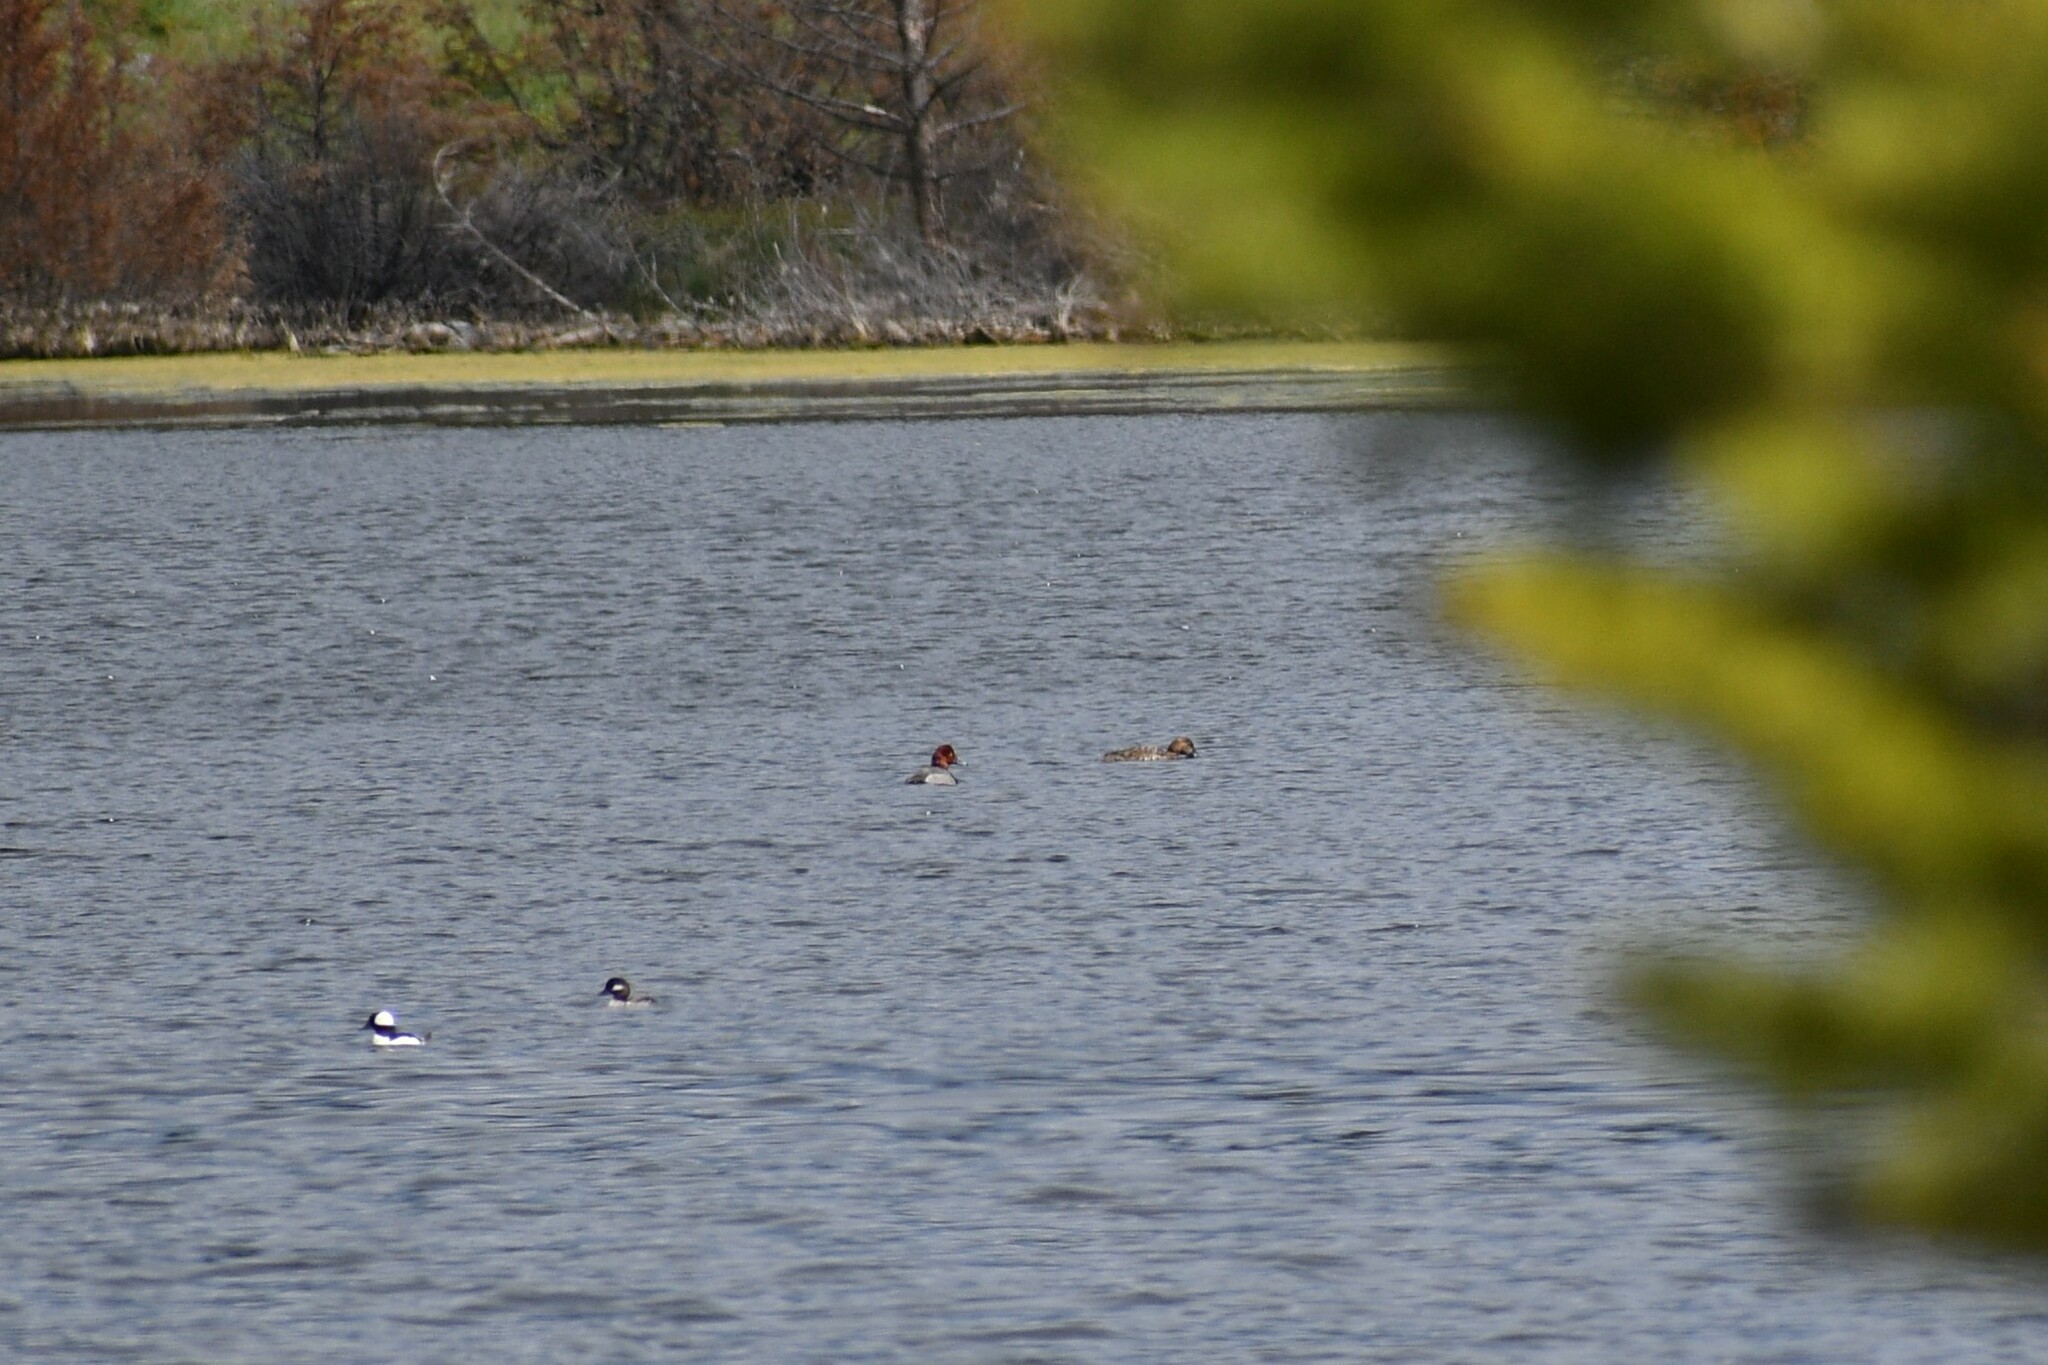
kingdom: Animalia
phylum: Chordata
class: Aves
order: Anseriformes
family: Anatidae
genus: Aythya
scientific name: Aythya americana
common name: Redhead
